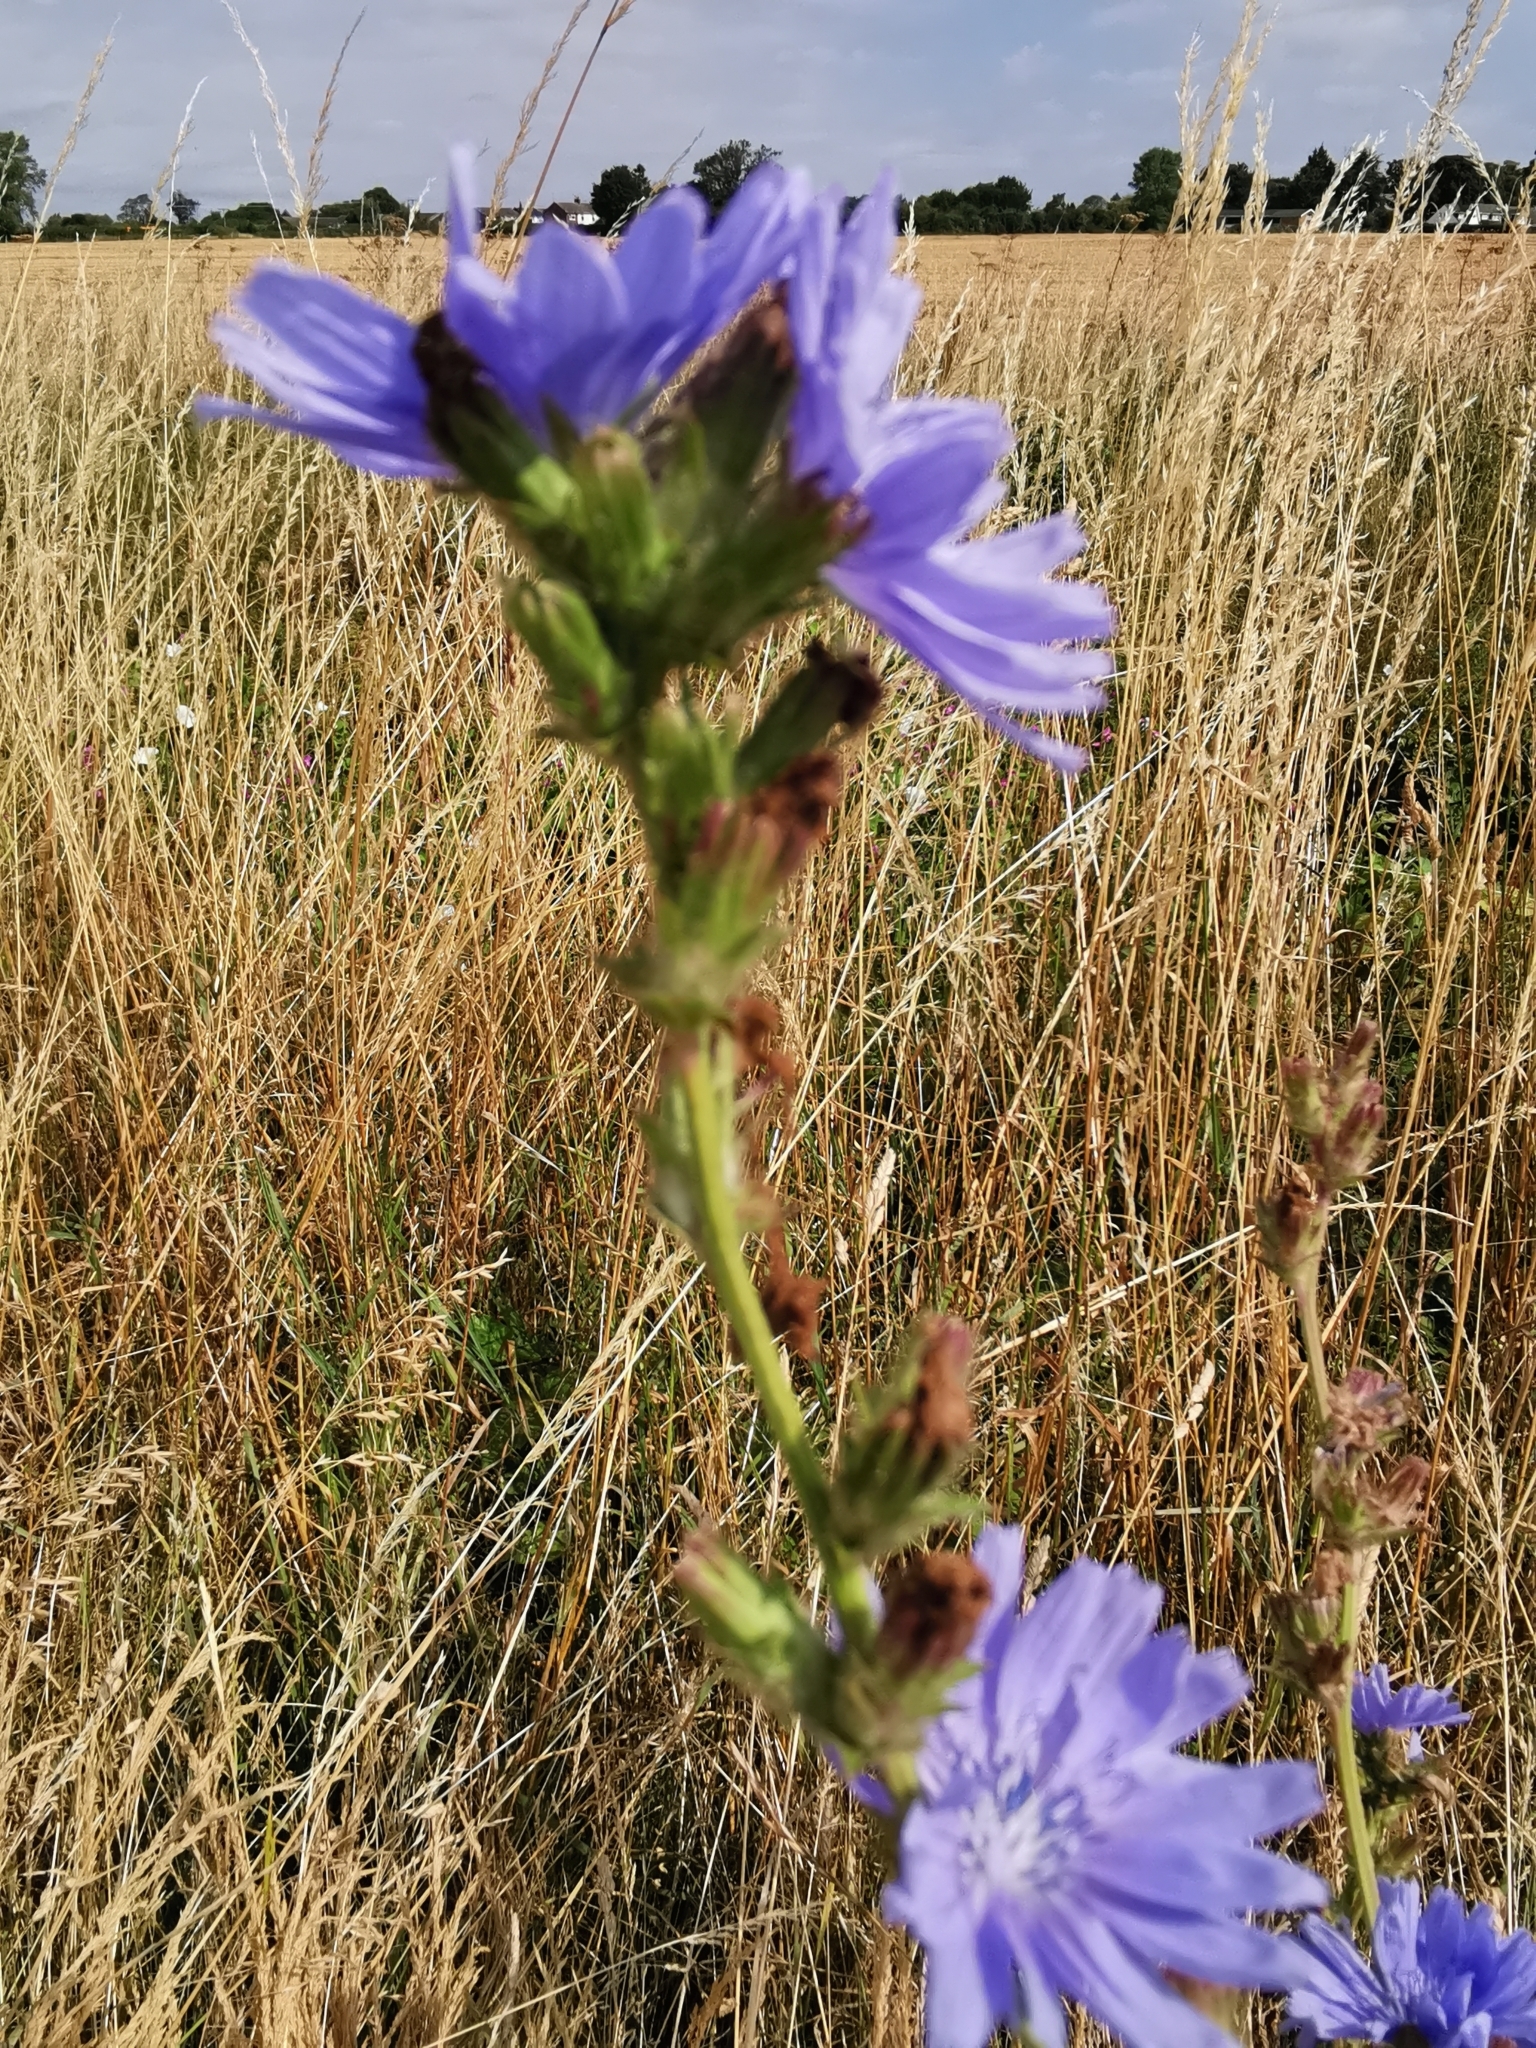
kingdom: Plantae
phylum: Tracheophyta
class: Magnoliopsida
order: Asterales
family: Asteraceae
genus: Cichorium
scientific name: Cichorium intybus
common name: Chicory
